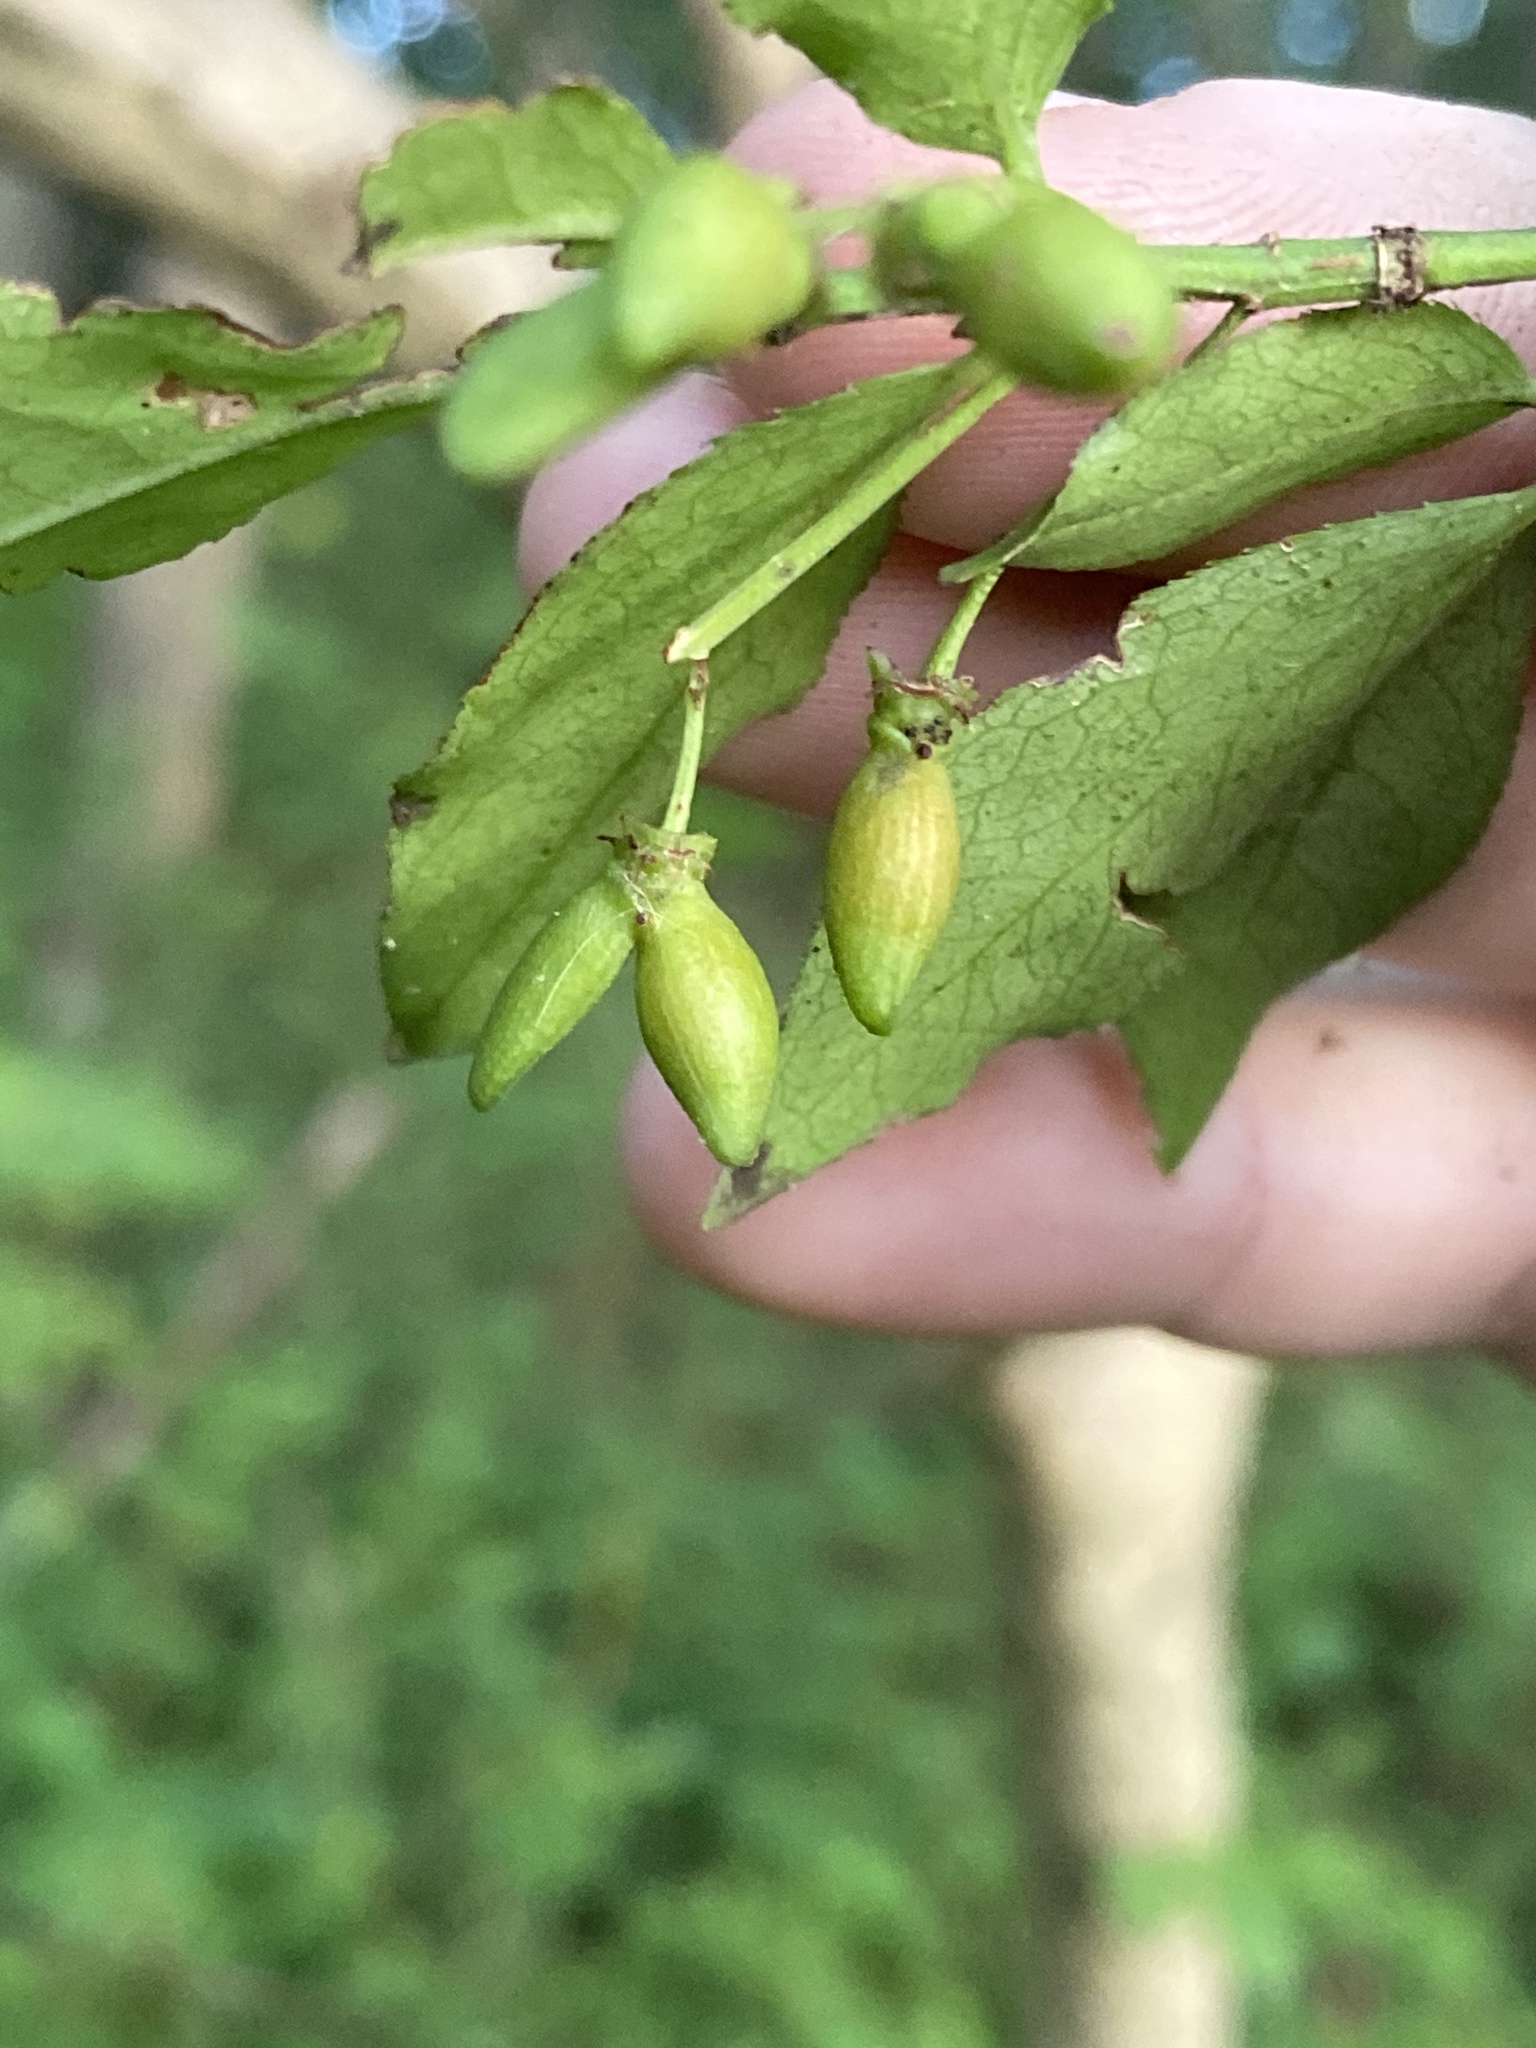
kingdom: Plantae
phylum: Tracheophyta
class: Magnoliopsida
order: Celastrales
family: Celastraceae
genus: Euonymus
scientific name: Euonymus alatus
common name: Winged euonymus
